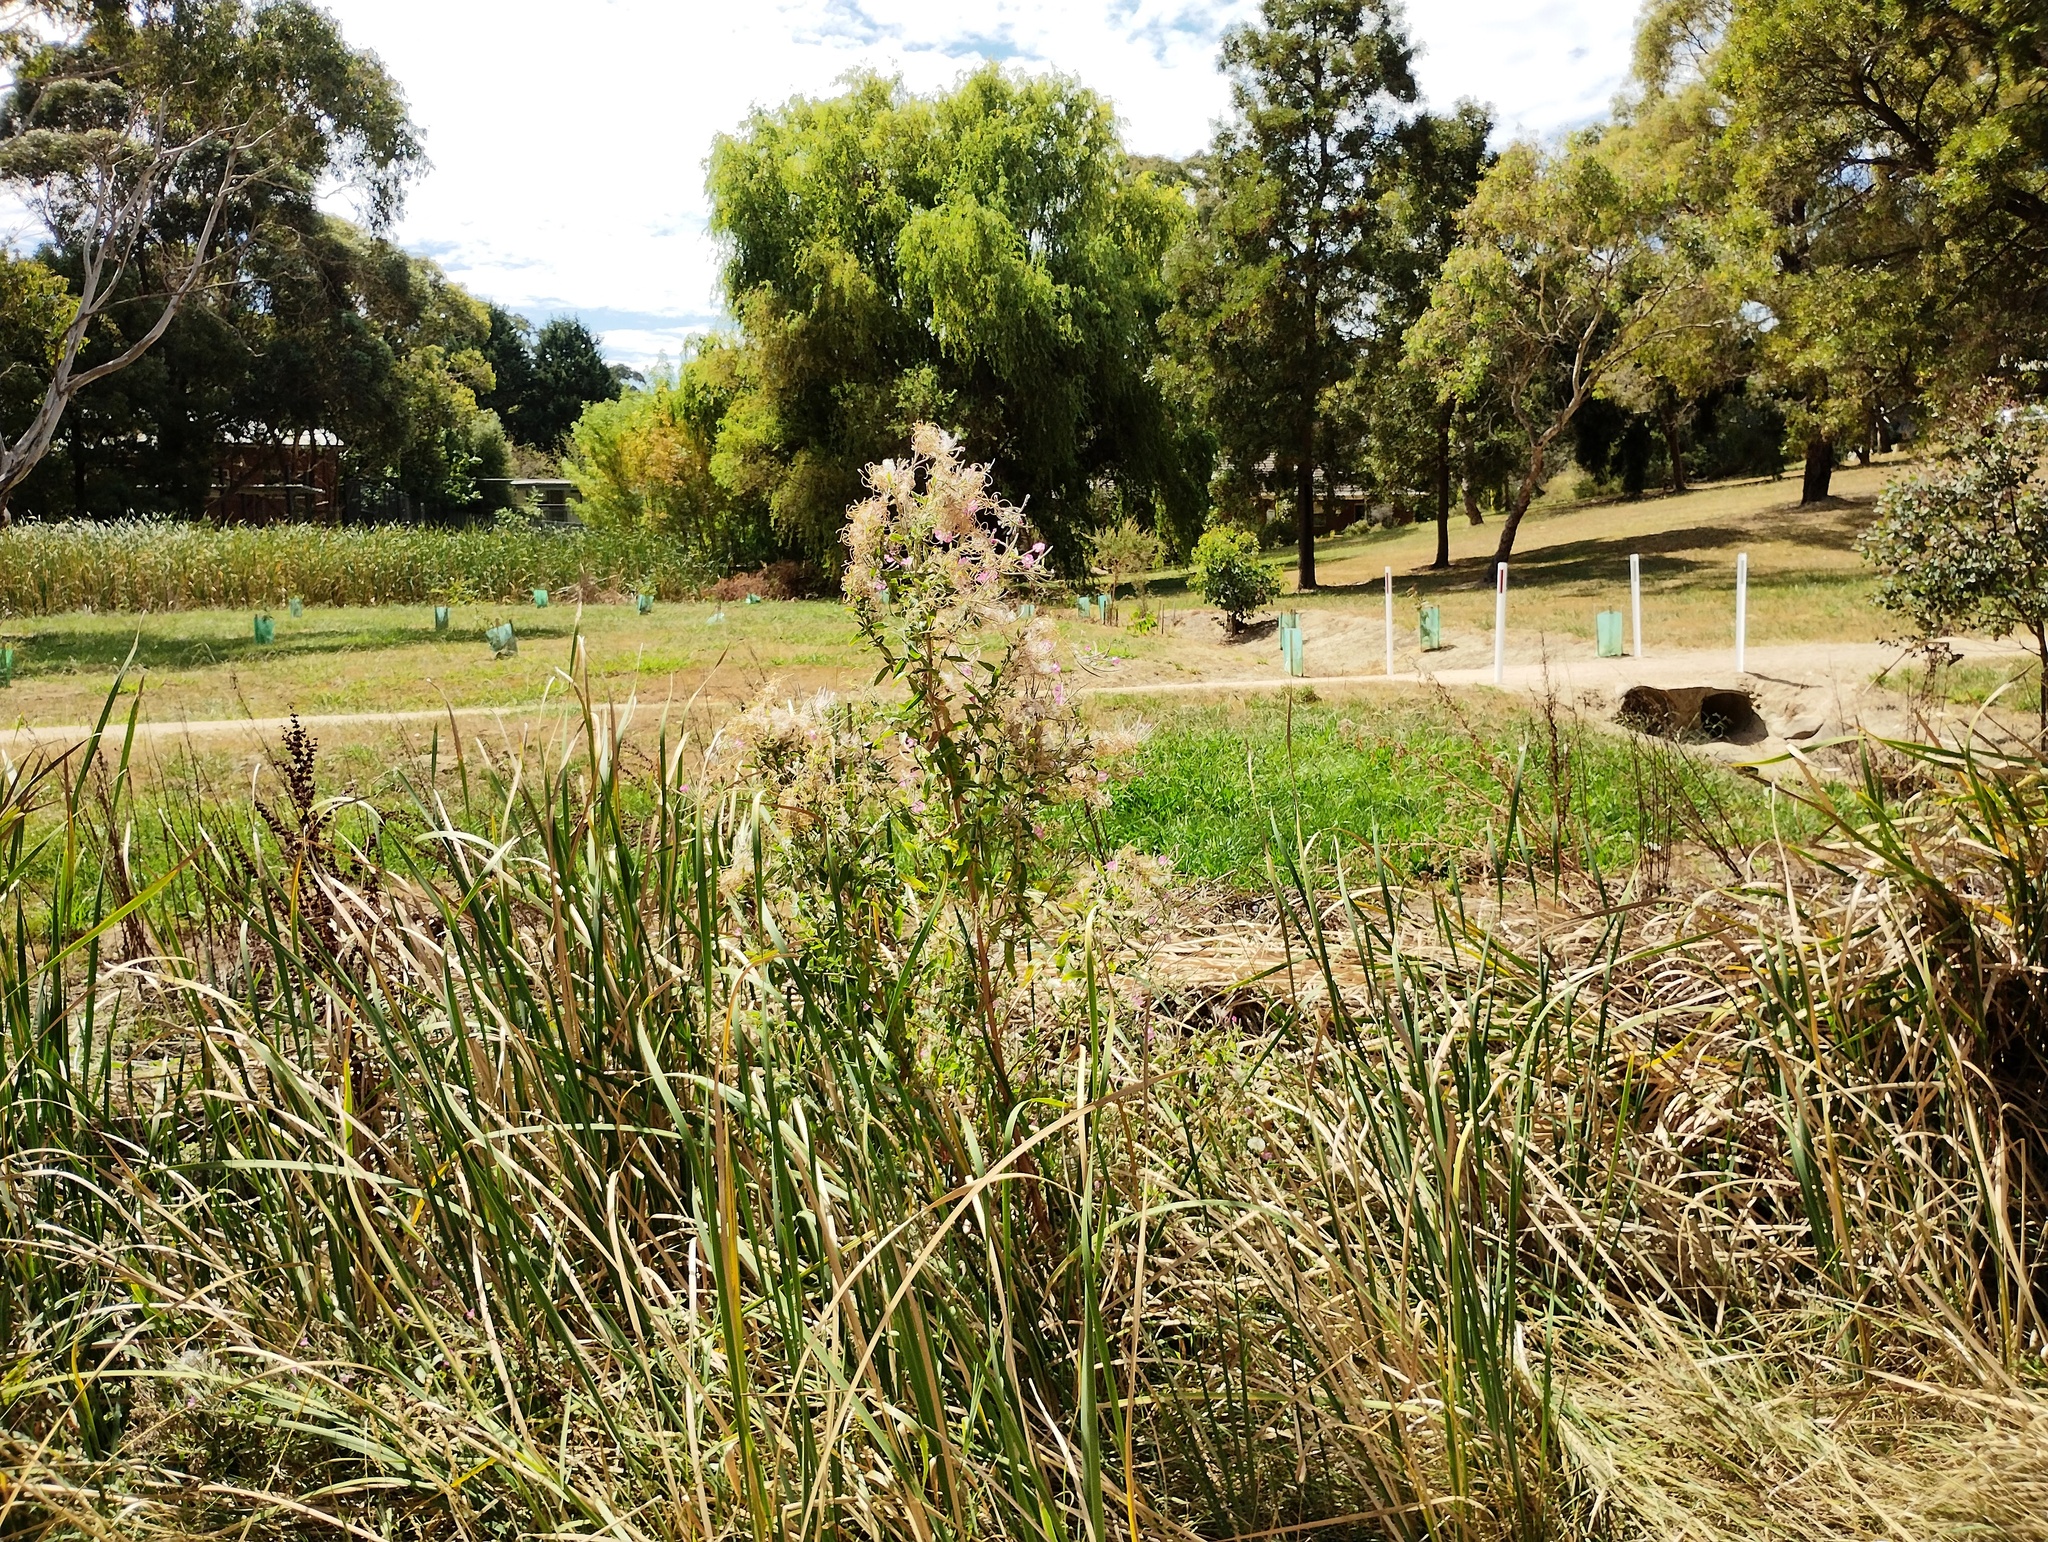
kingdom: Plantae
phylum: Tracheophyta
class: Magnoliopsida
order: Myrtales
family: Onagraceae
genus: Epilobium
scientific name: Epilobium hirsutum
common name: Great willowherb
